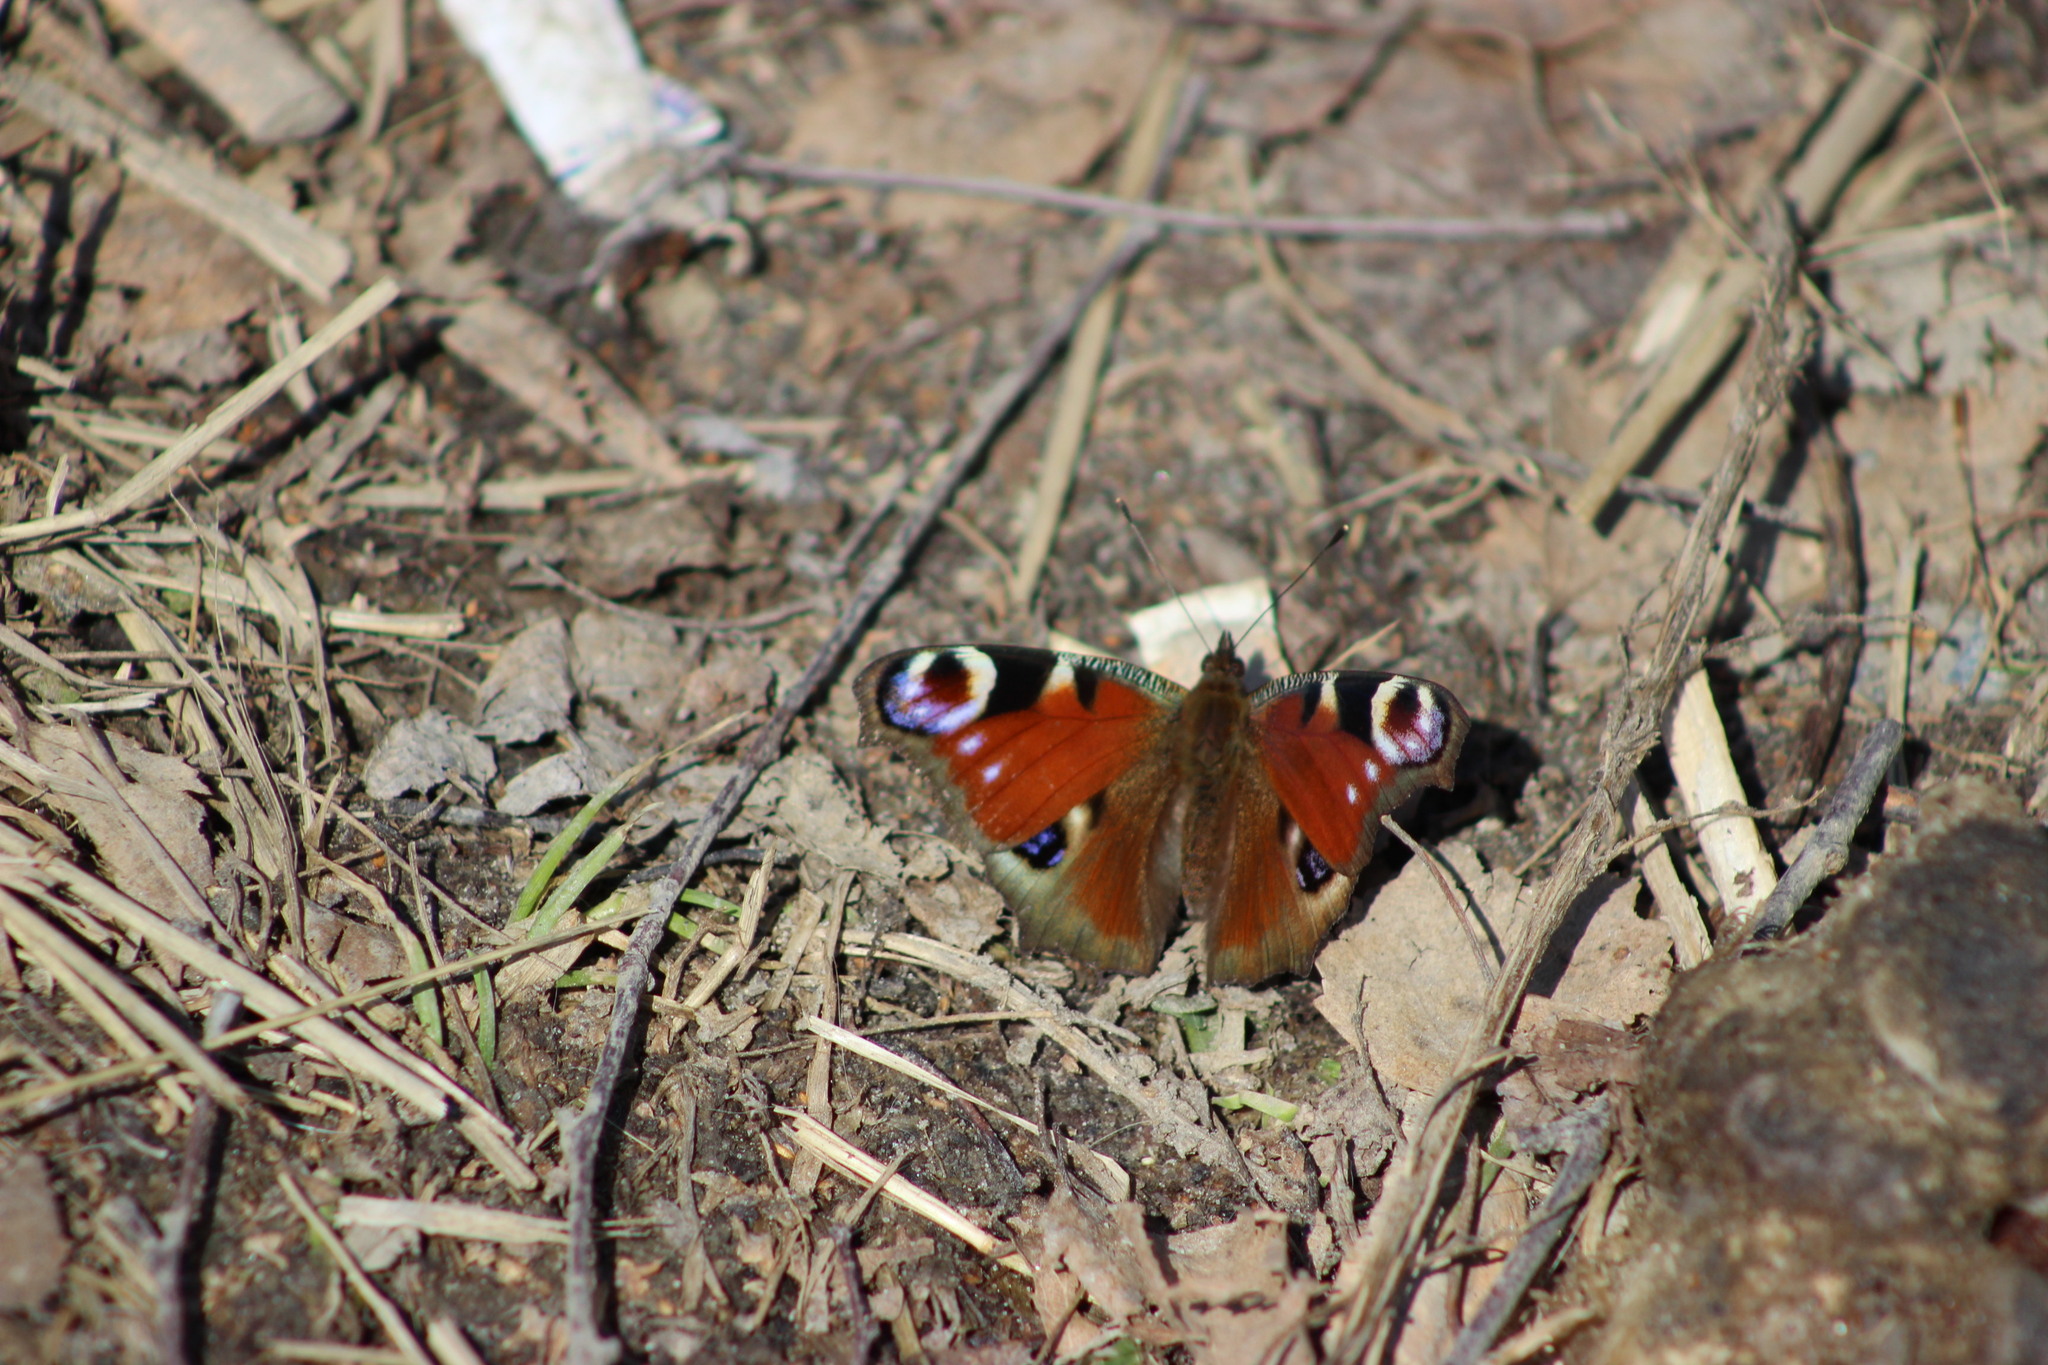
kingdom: Animalia
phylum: Arthropoda
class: Insecta
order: Lepidoptera
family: Nymphalidae
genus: Aglais
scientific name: Aglais io
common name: Peacock
